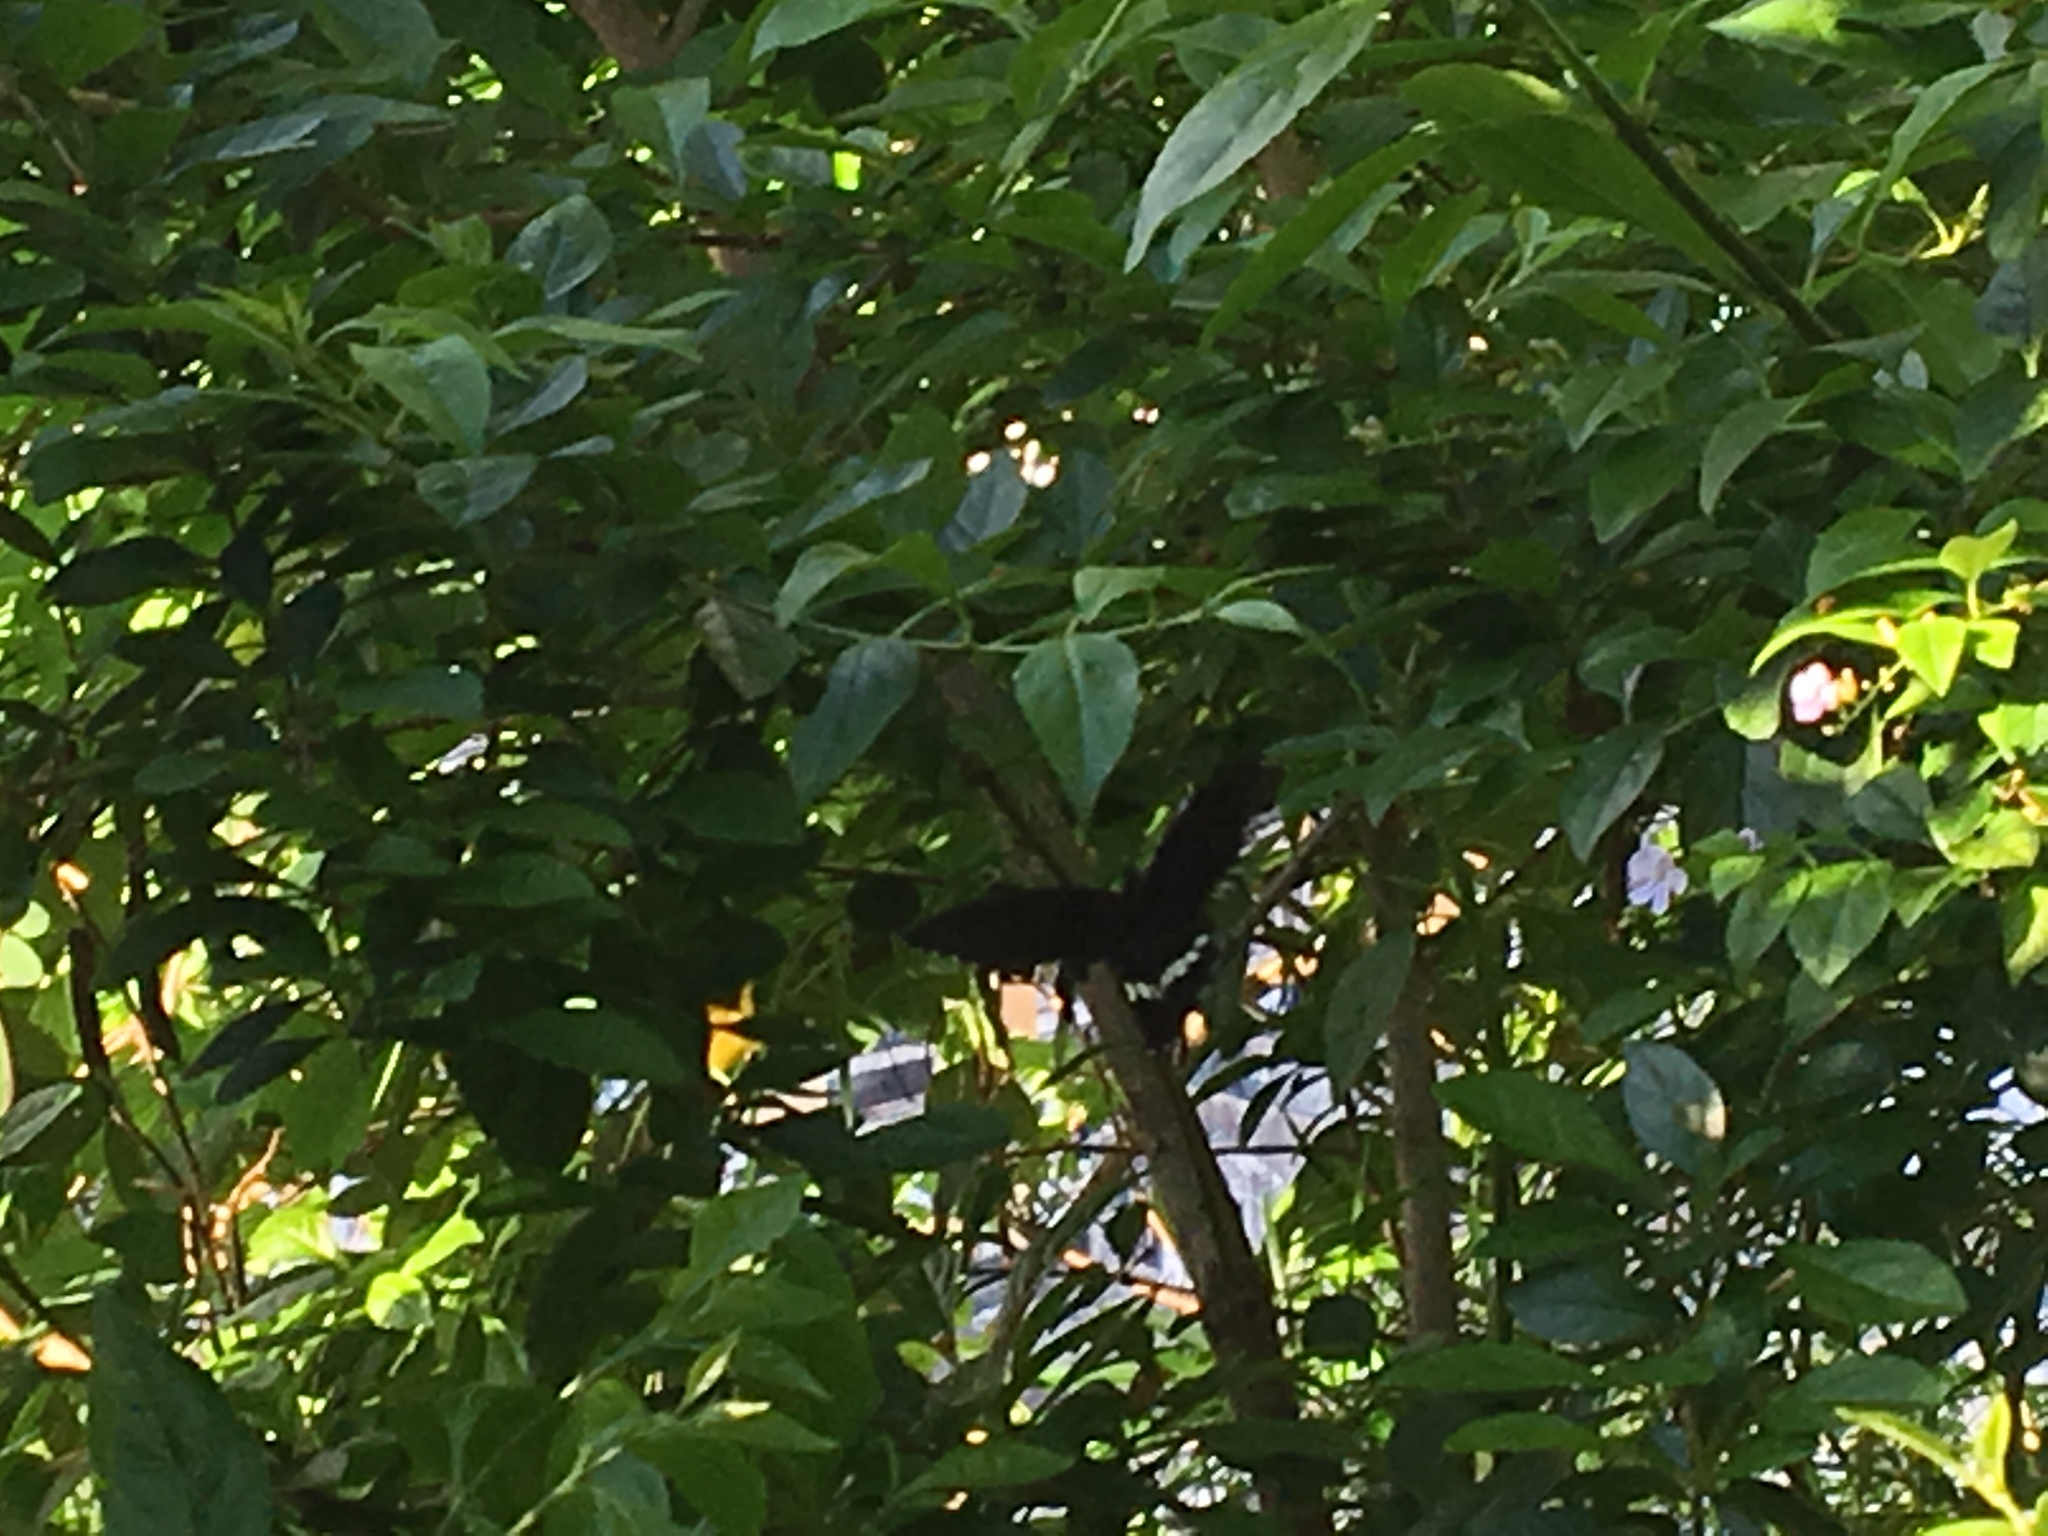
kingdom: Animalia
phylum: Arthropoda
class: Insecta
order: Lepidoptera
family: Papilionidae
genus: Papilio
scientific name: Papilio polytes
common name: Common mormon
